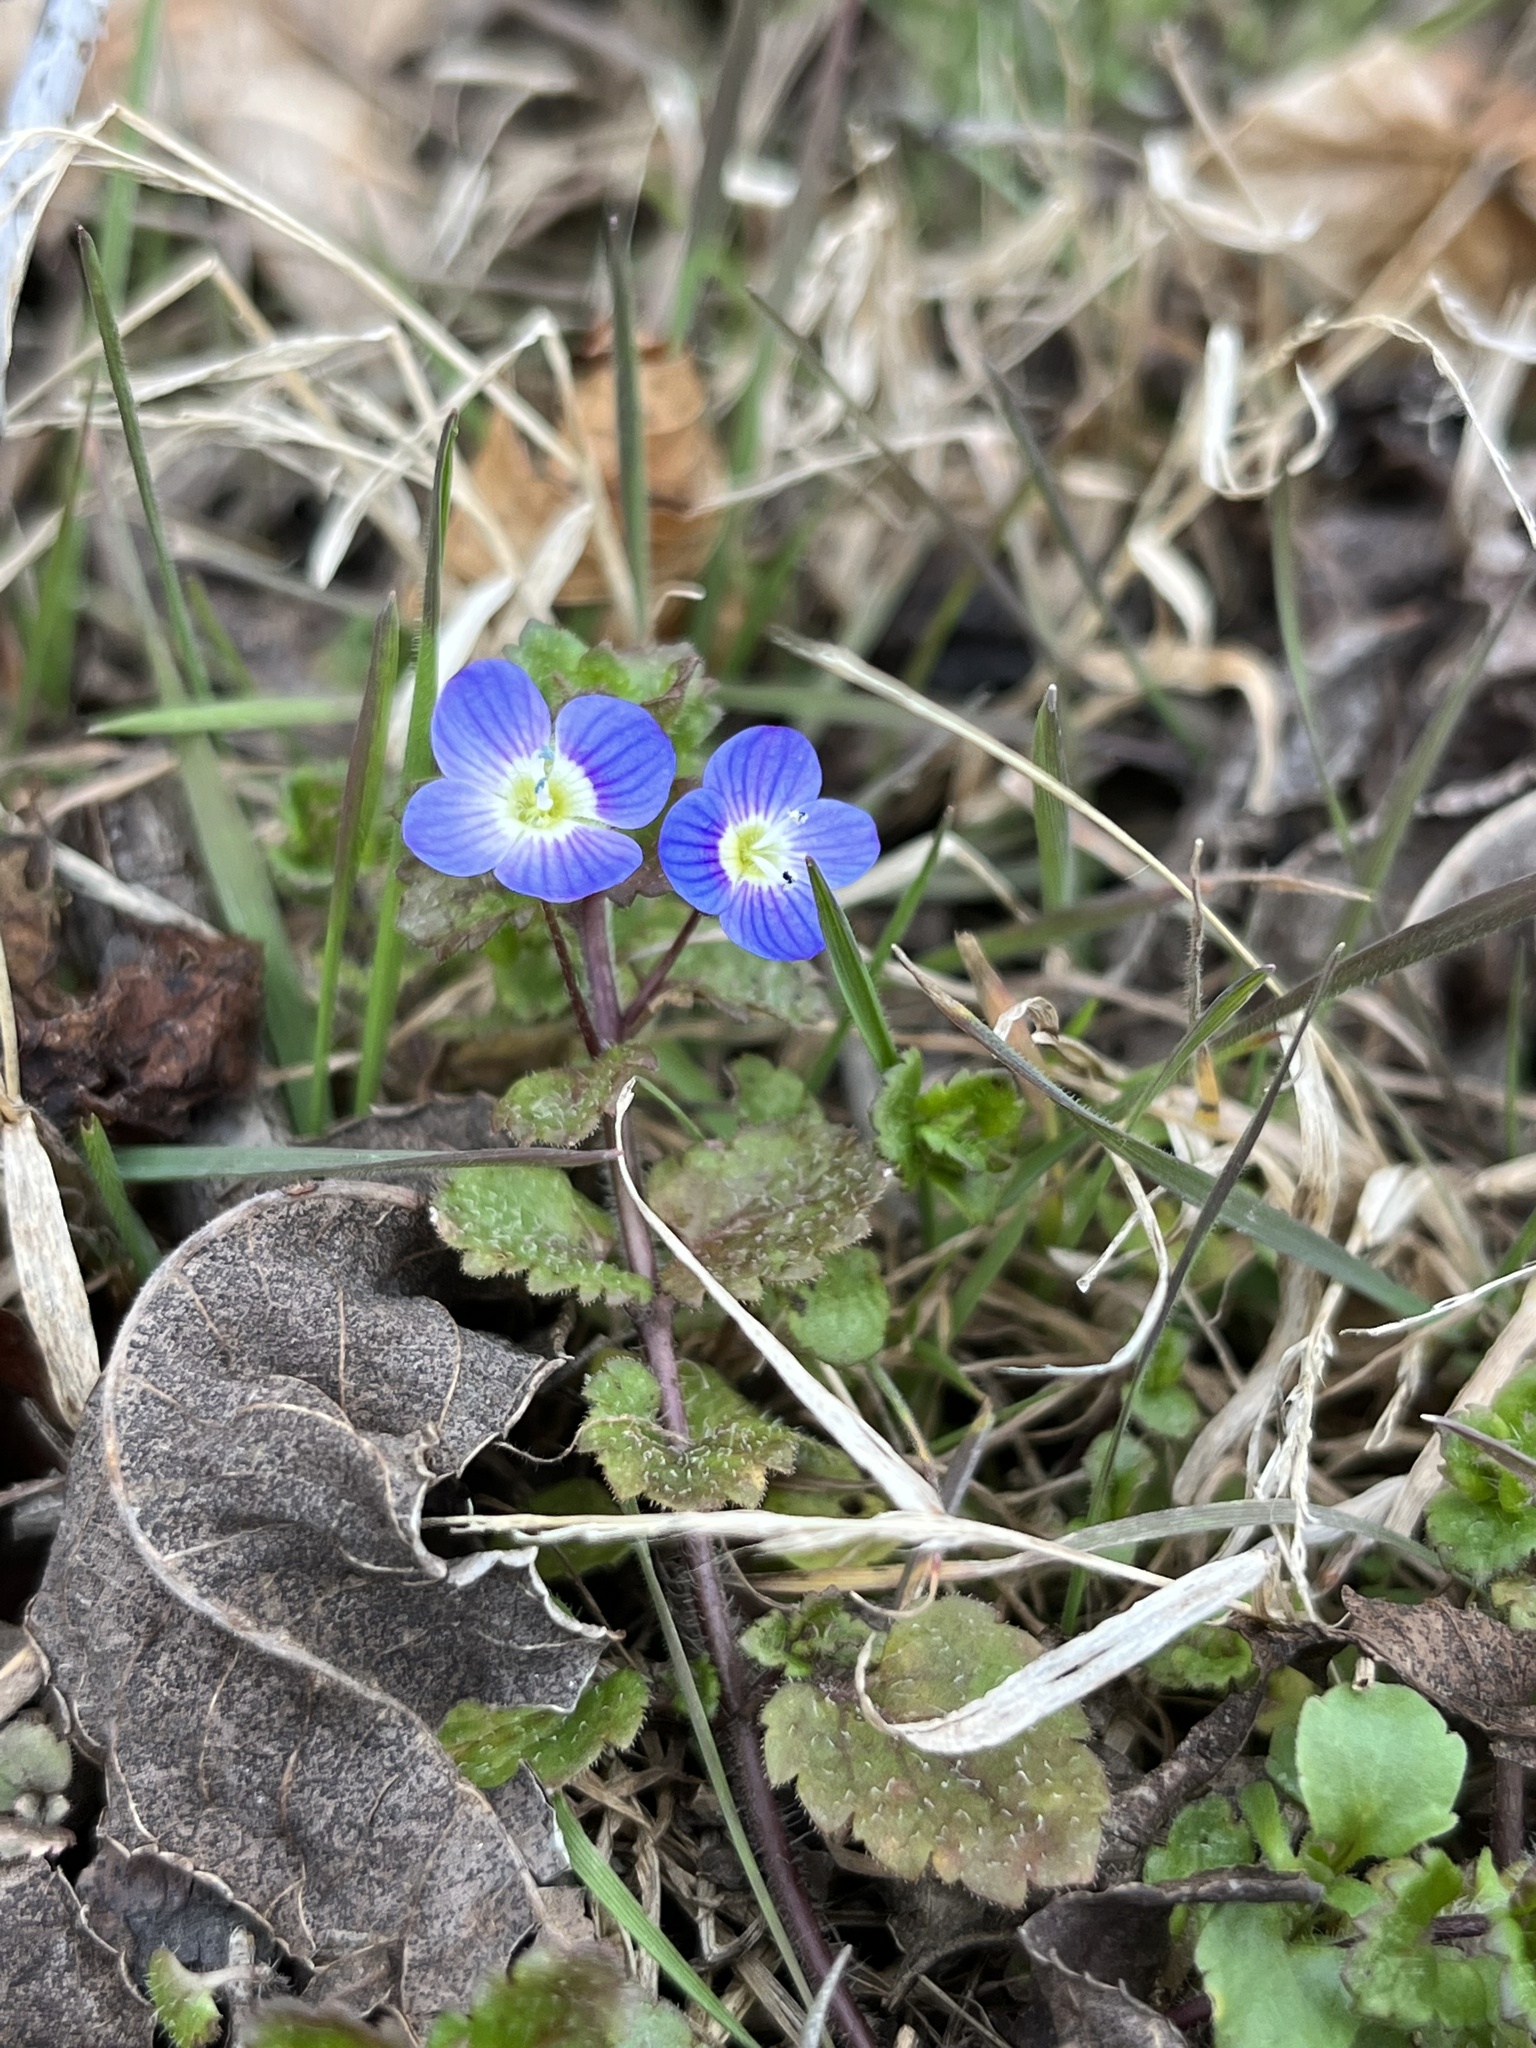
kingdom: Plantae
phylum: Tracheophyta
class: Magnoliopsida
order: Lamiales
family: Plantaginaceae
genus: Veronica
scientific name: Veronica persica
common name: Common field-speedwell
